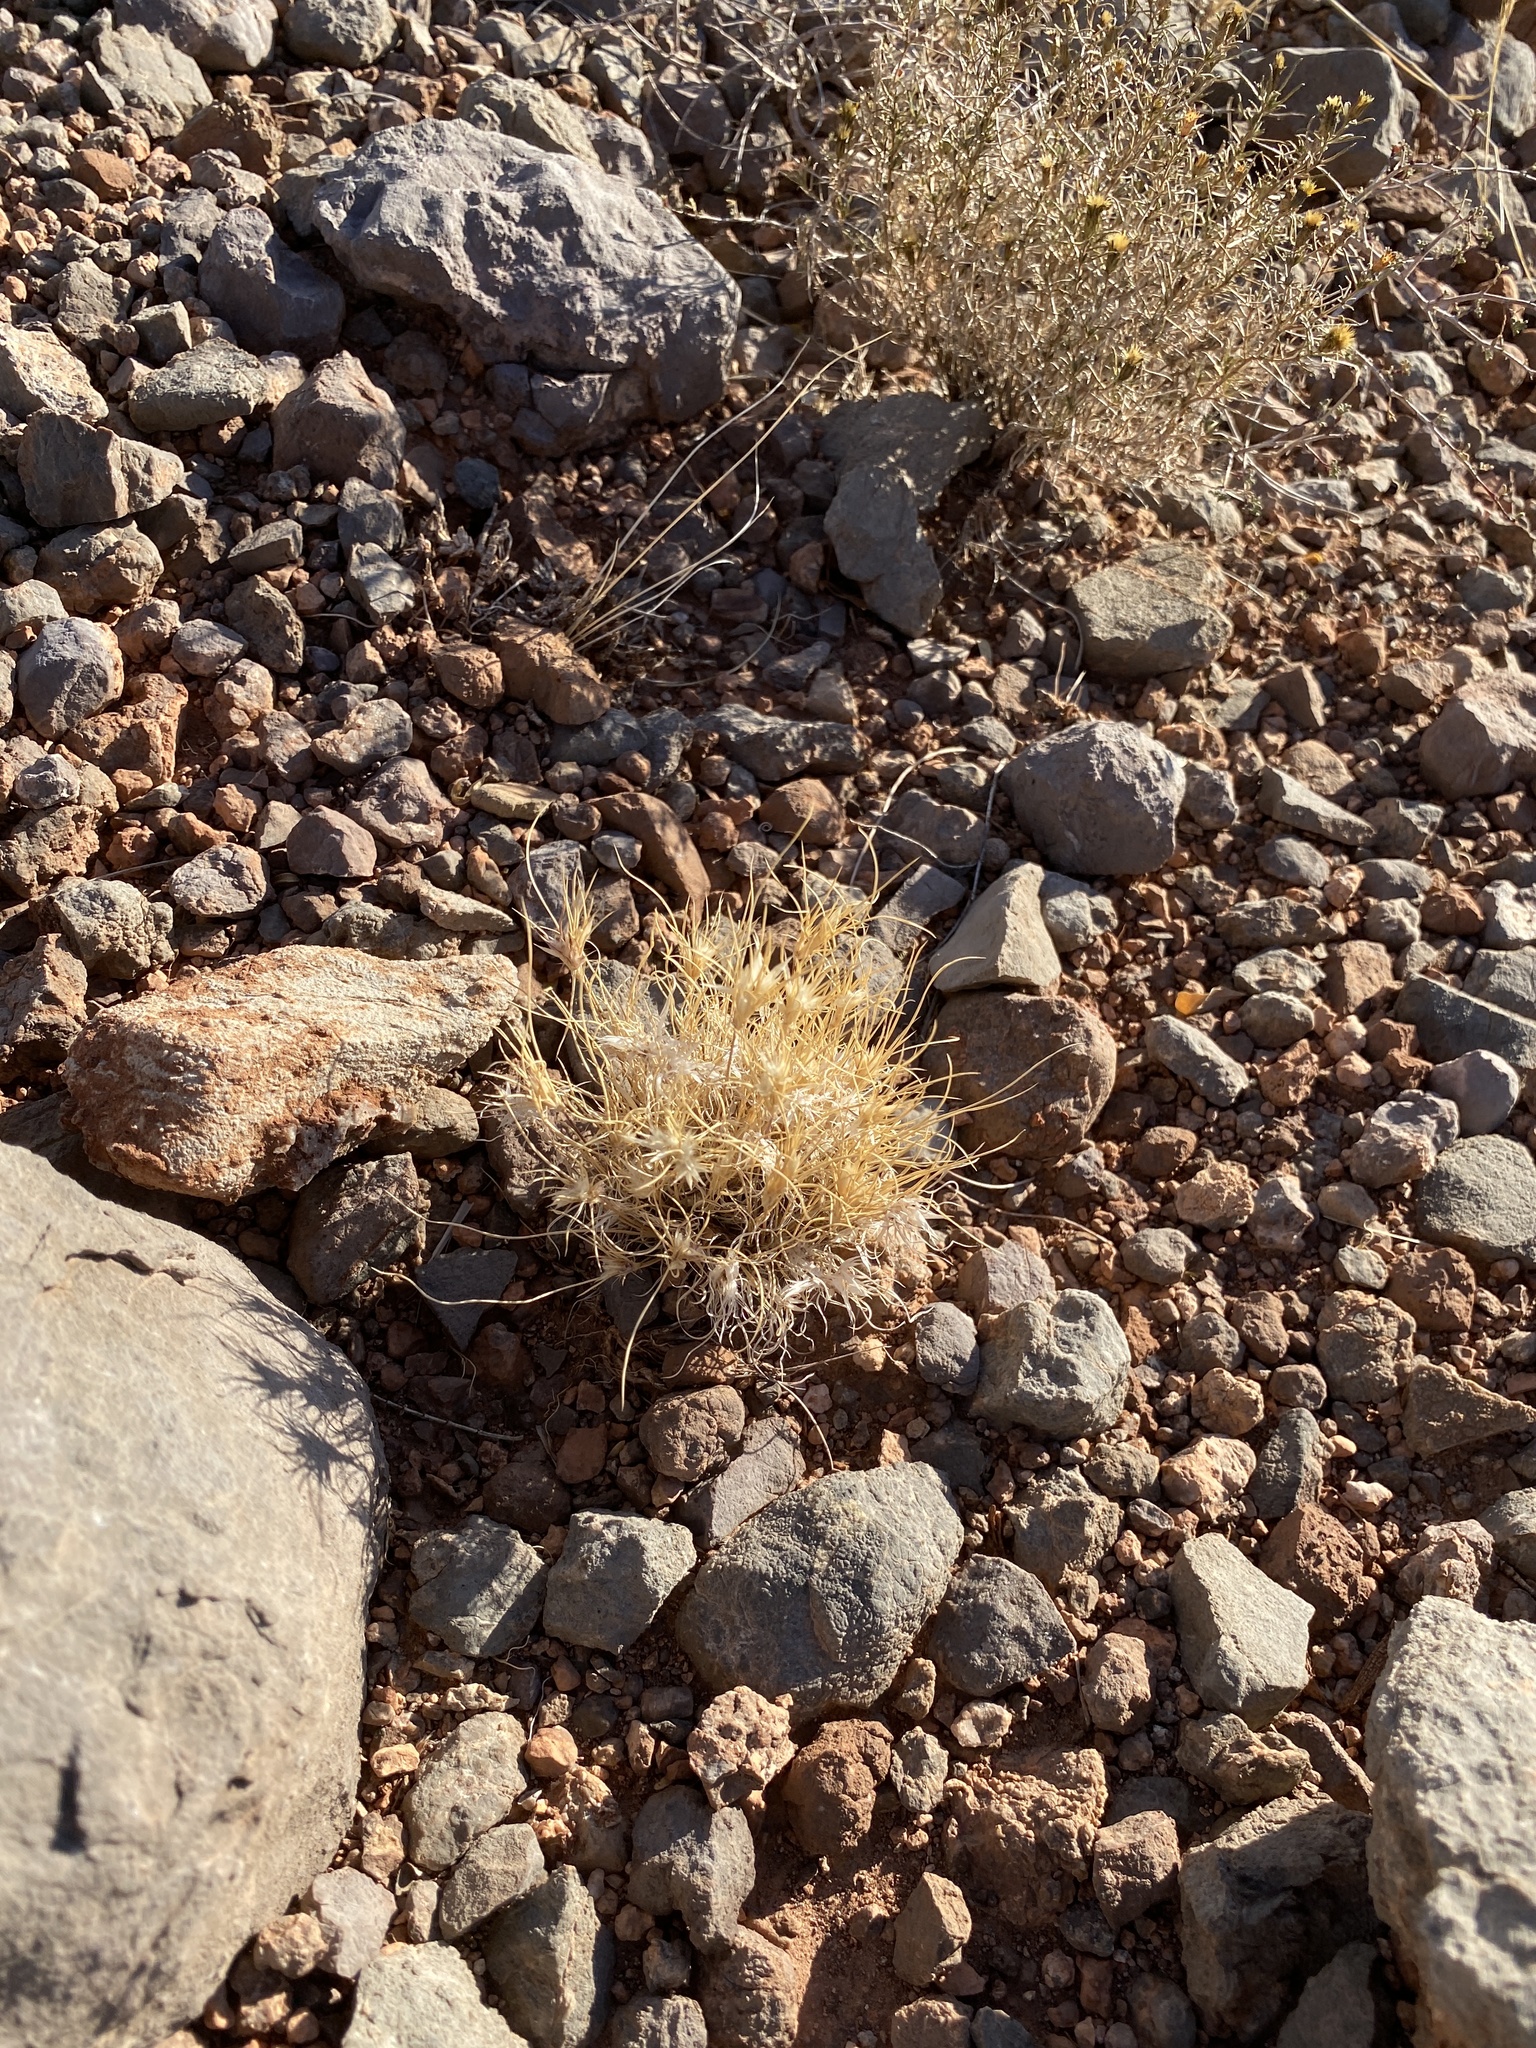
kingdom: Plantae
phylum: Tracheophyta
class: Liliopsida
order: Poales
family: Poaceae
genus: Dasyochloa
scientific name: Dasyochloa pulchella
